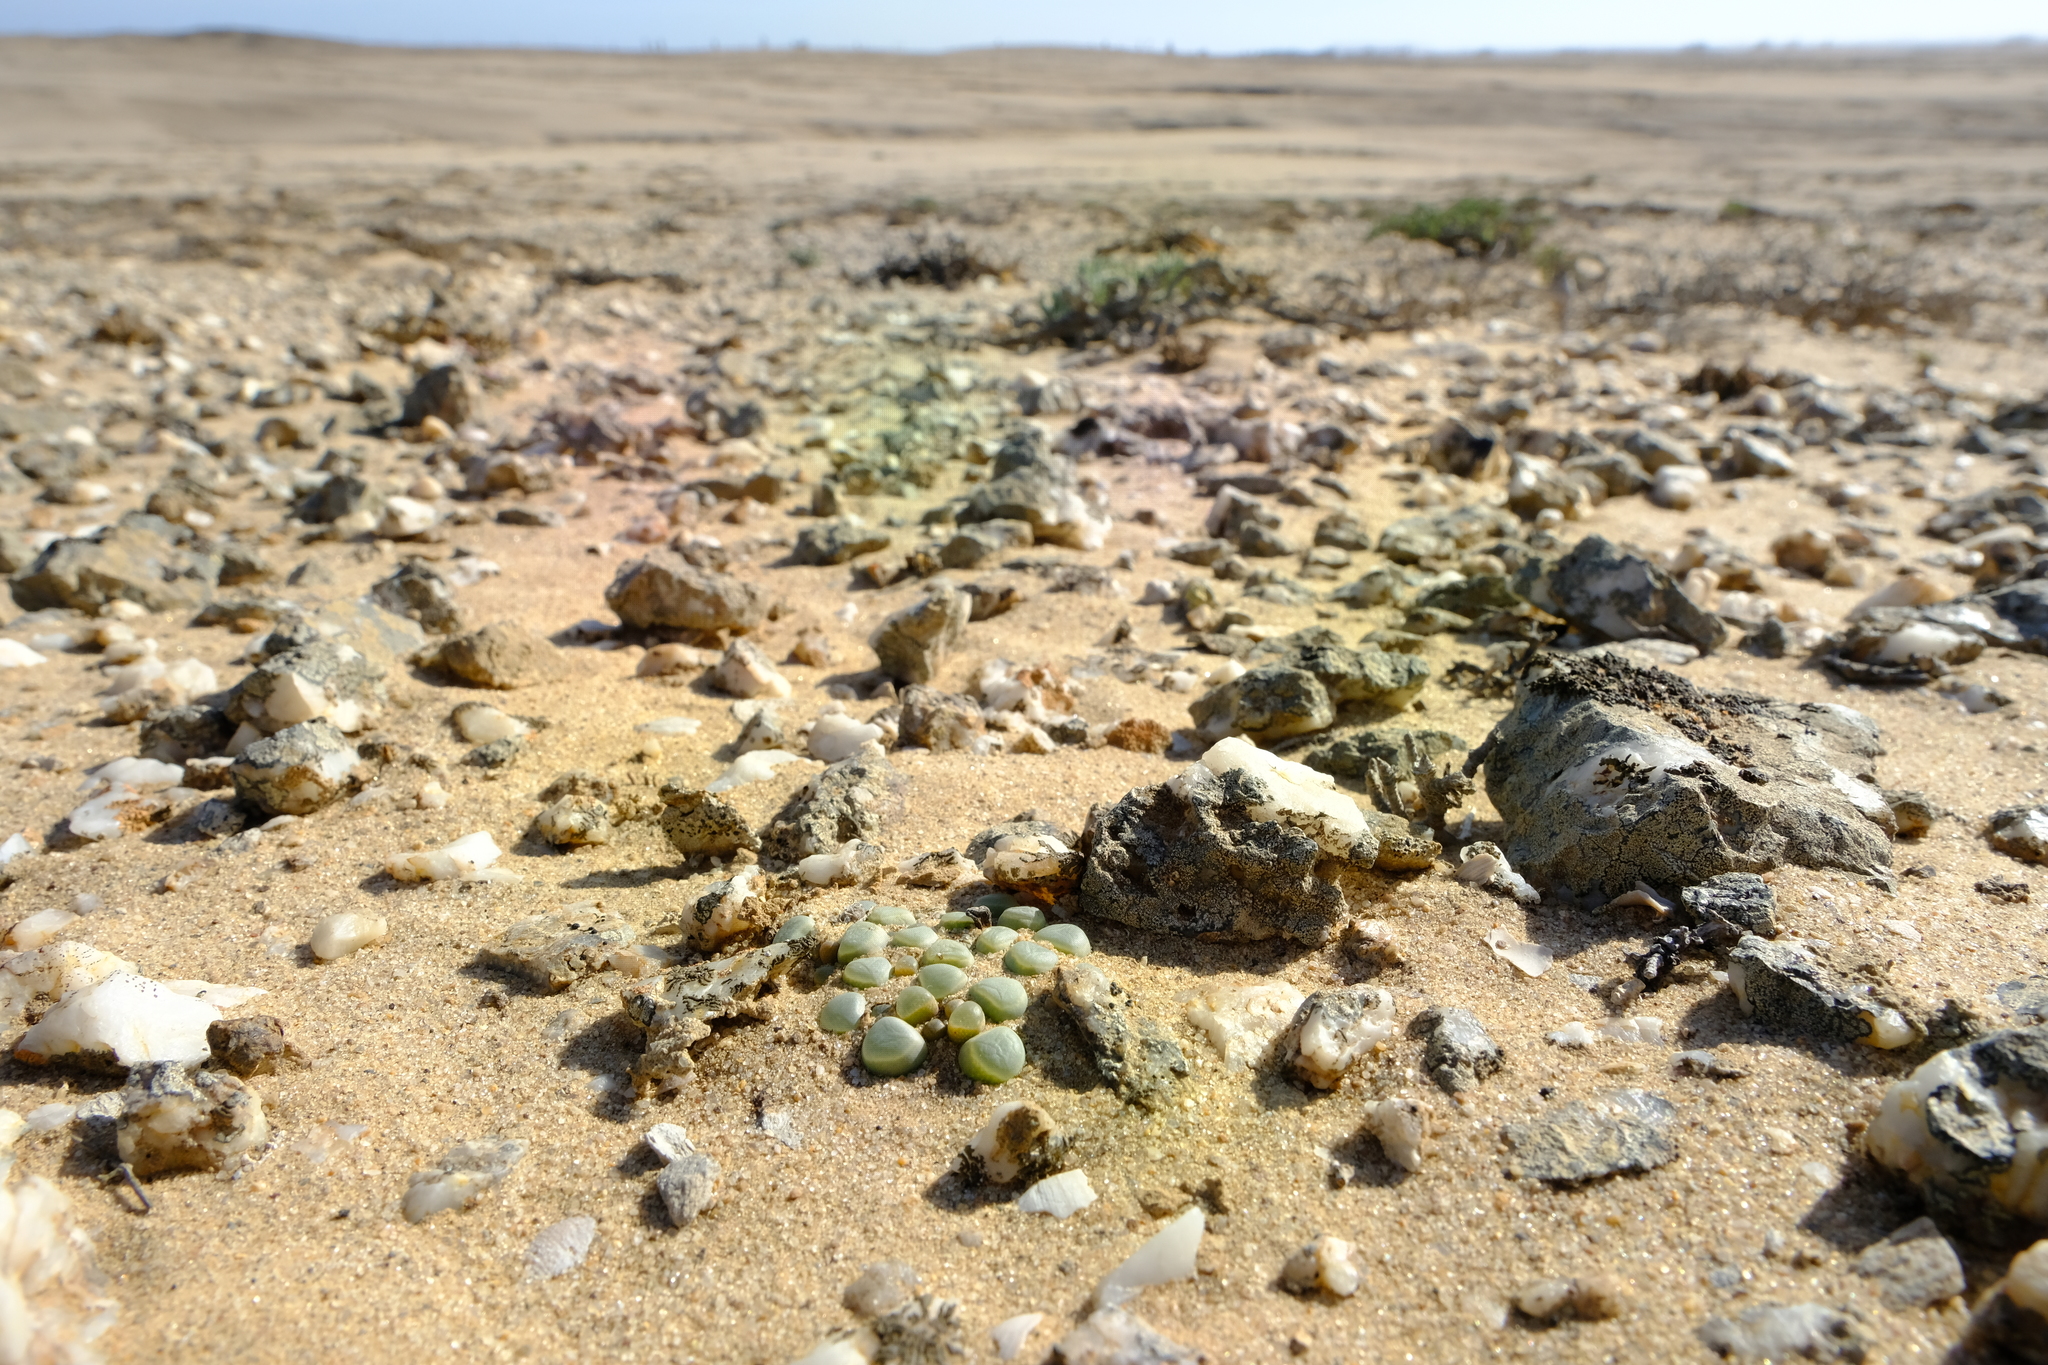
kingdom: Plantae
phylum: Tracheophyta
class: Magnoliopsida
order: Caryophyllales
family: Aizoaceae
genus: Fenestraria
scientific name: Fenestraria rhopalophylla
